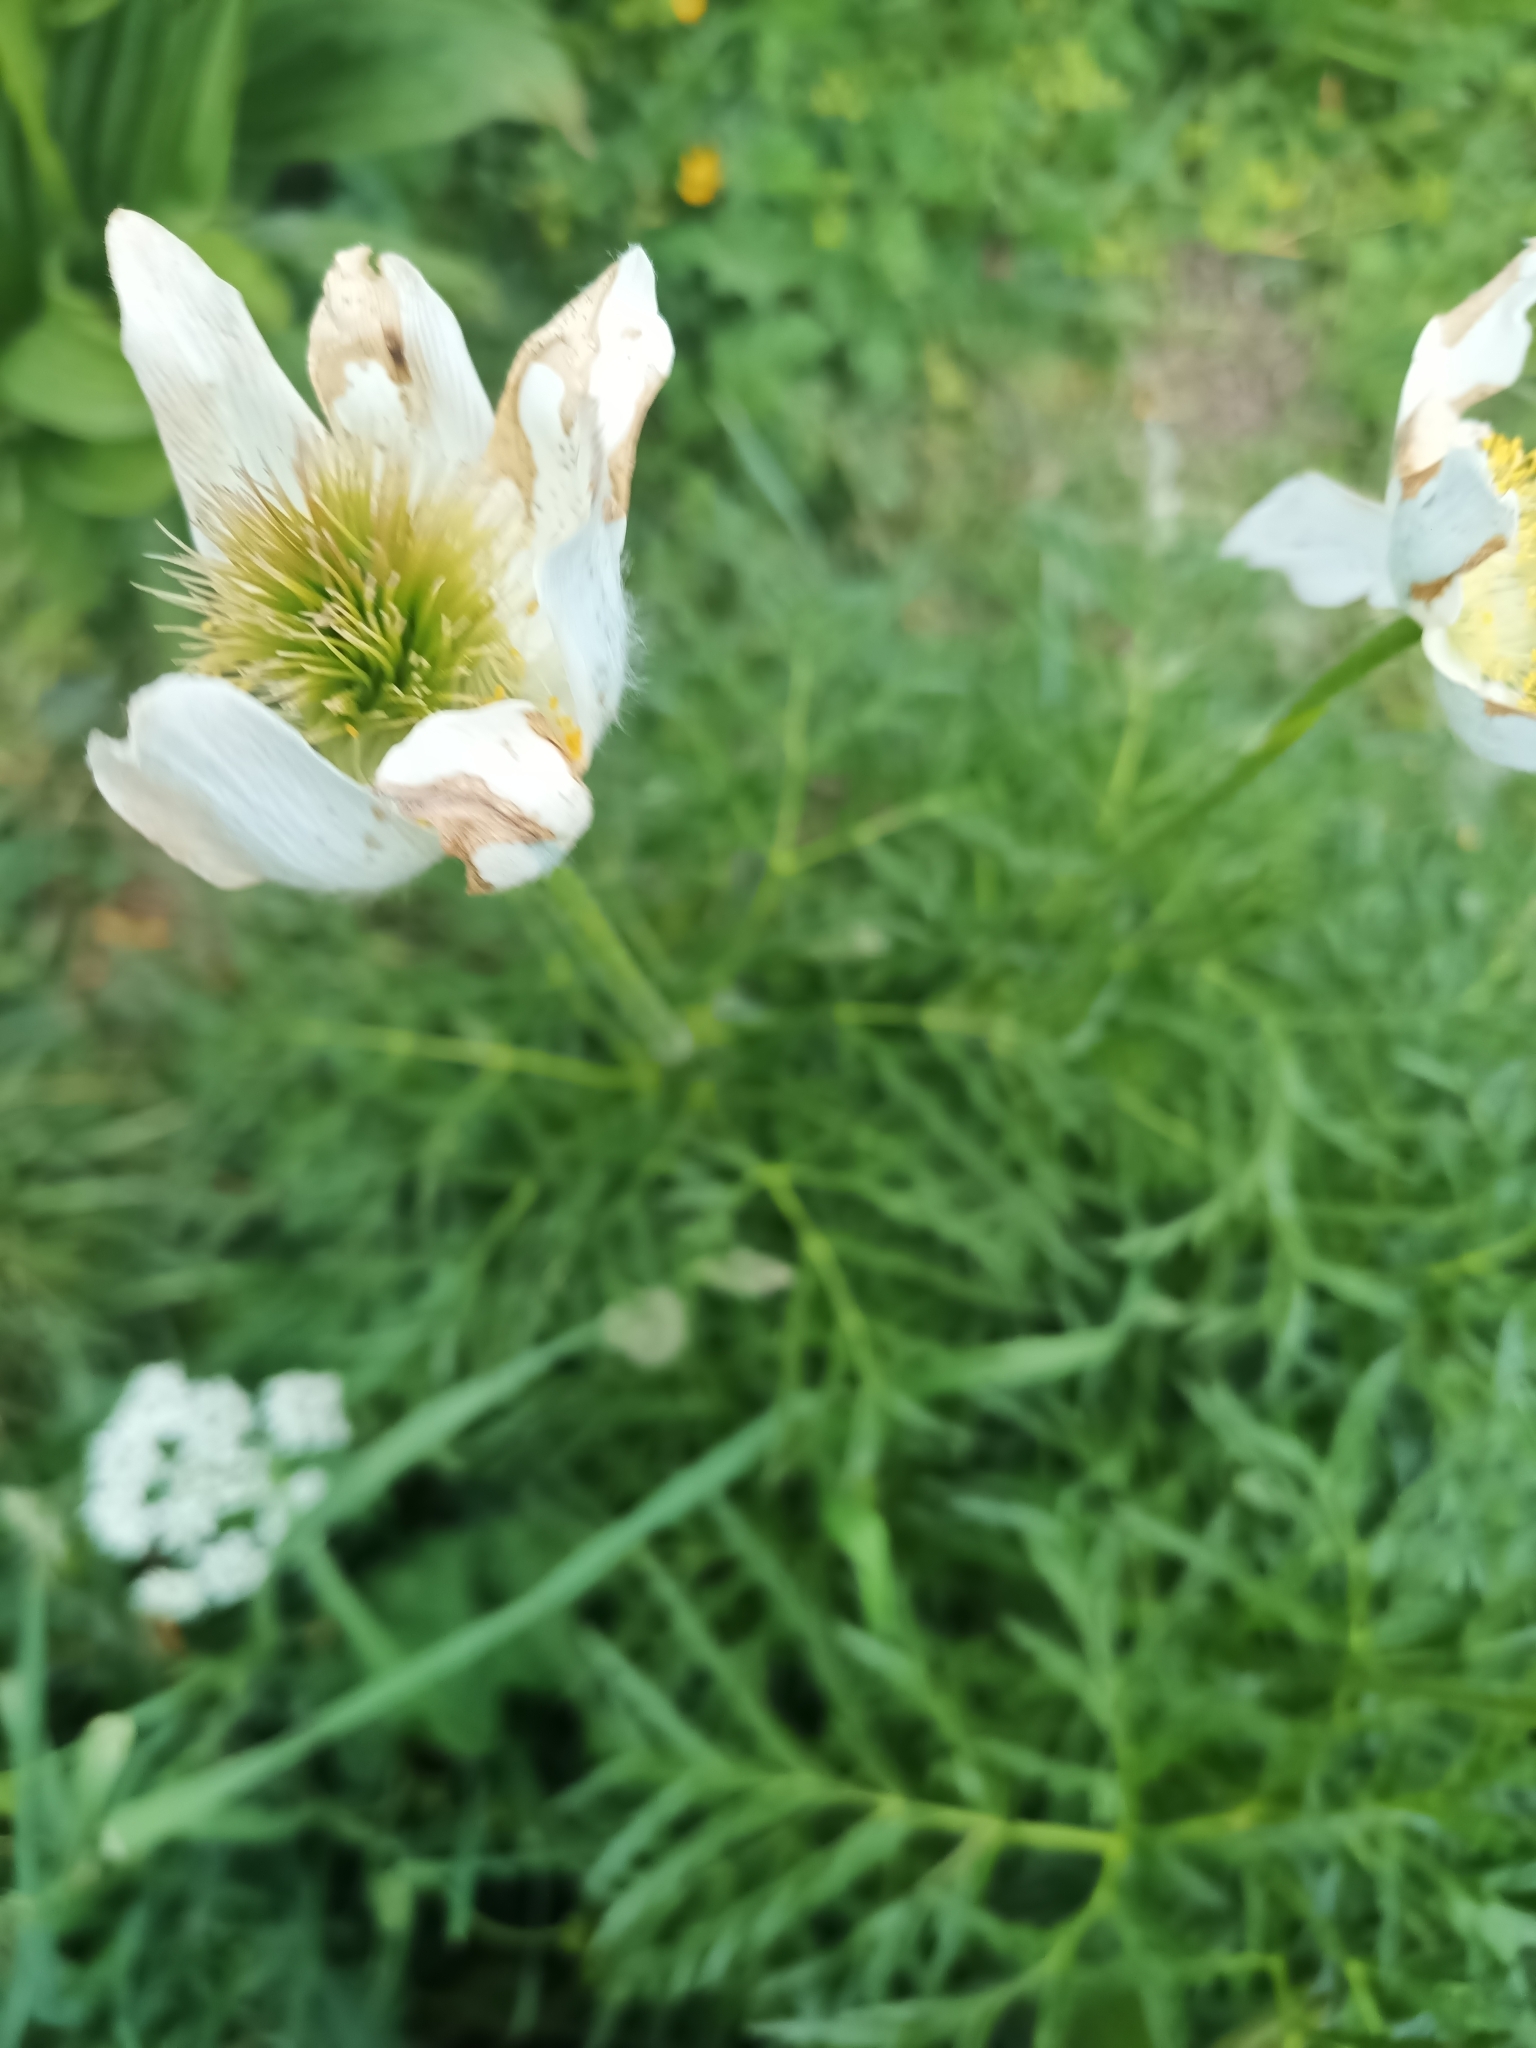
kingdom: Plantae
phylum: Tracheophyta
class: Magnoliopsida
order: Ranunculales
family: Ranunculaceae
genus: Pulsatilla
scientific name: Pulsatilla alpina
